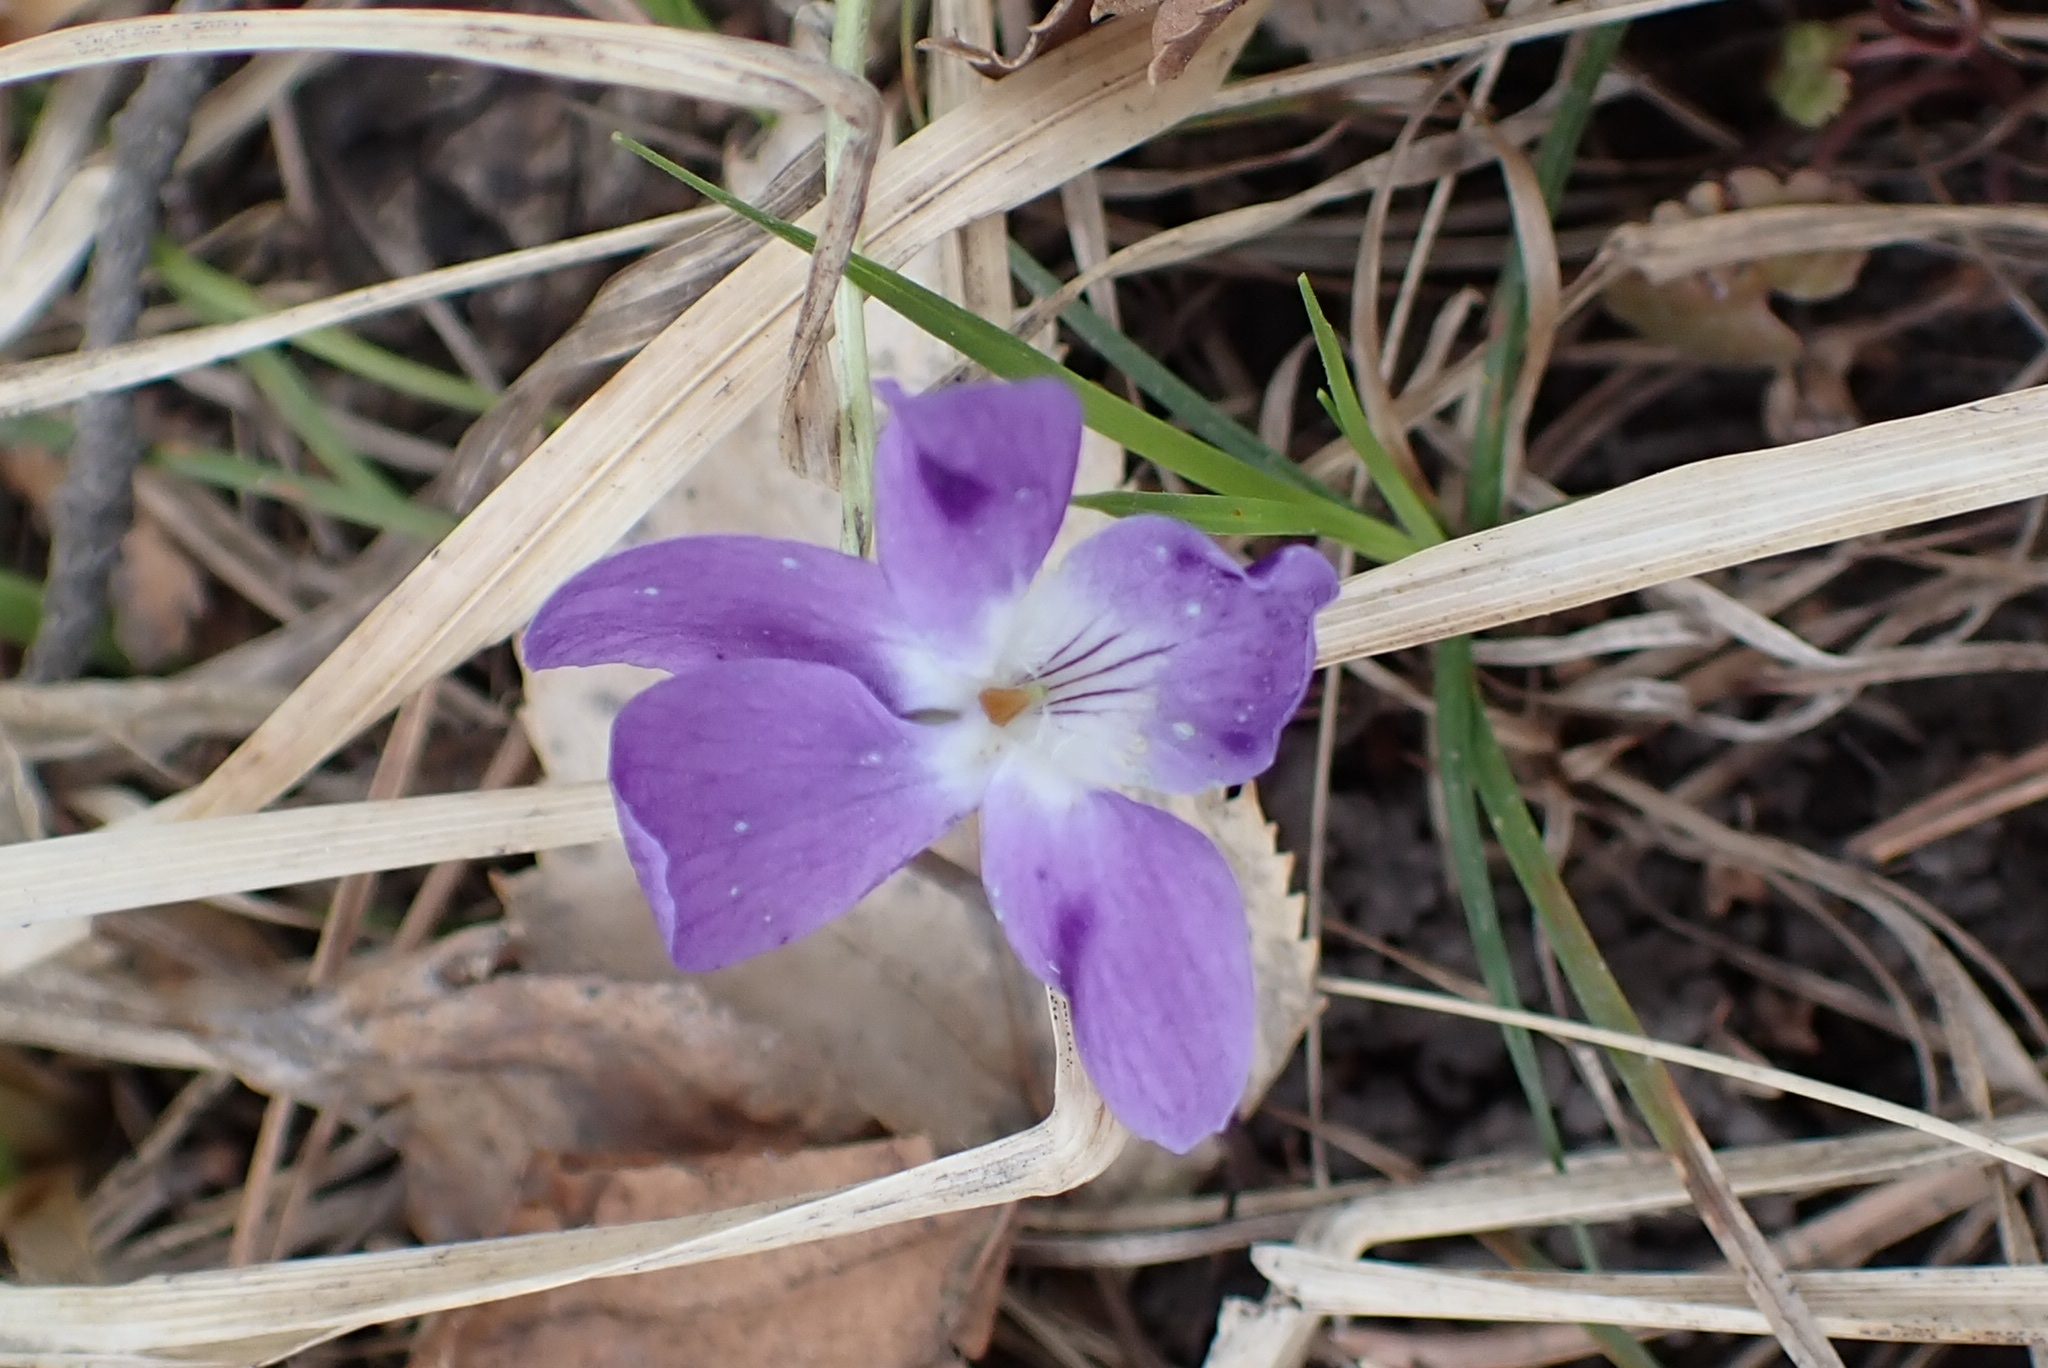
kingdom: Plantae
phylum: Tracheophyta
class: Magnoliopsida
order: Malpighiales
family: Violaceae
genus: Viola
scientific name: Viola hirta
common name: Hairy violet
